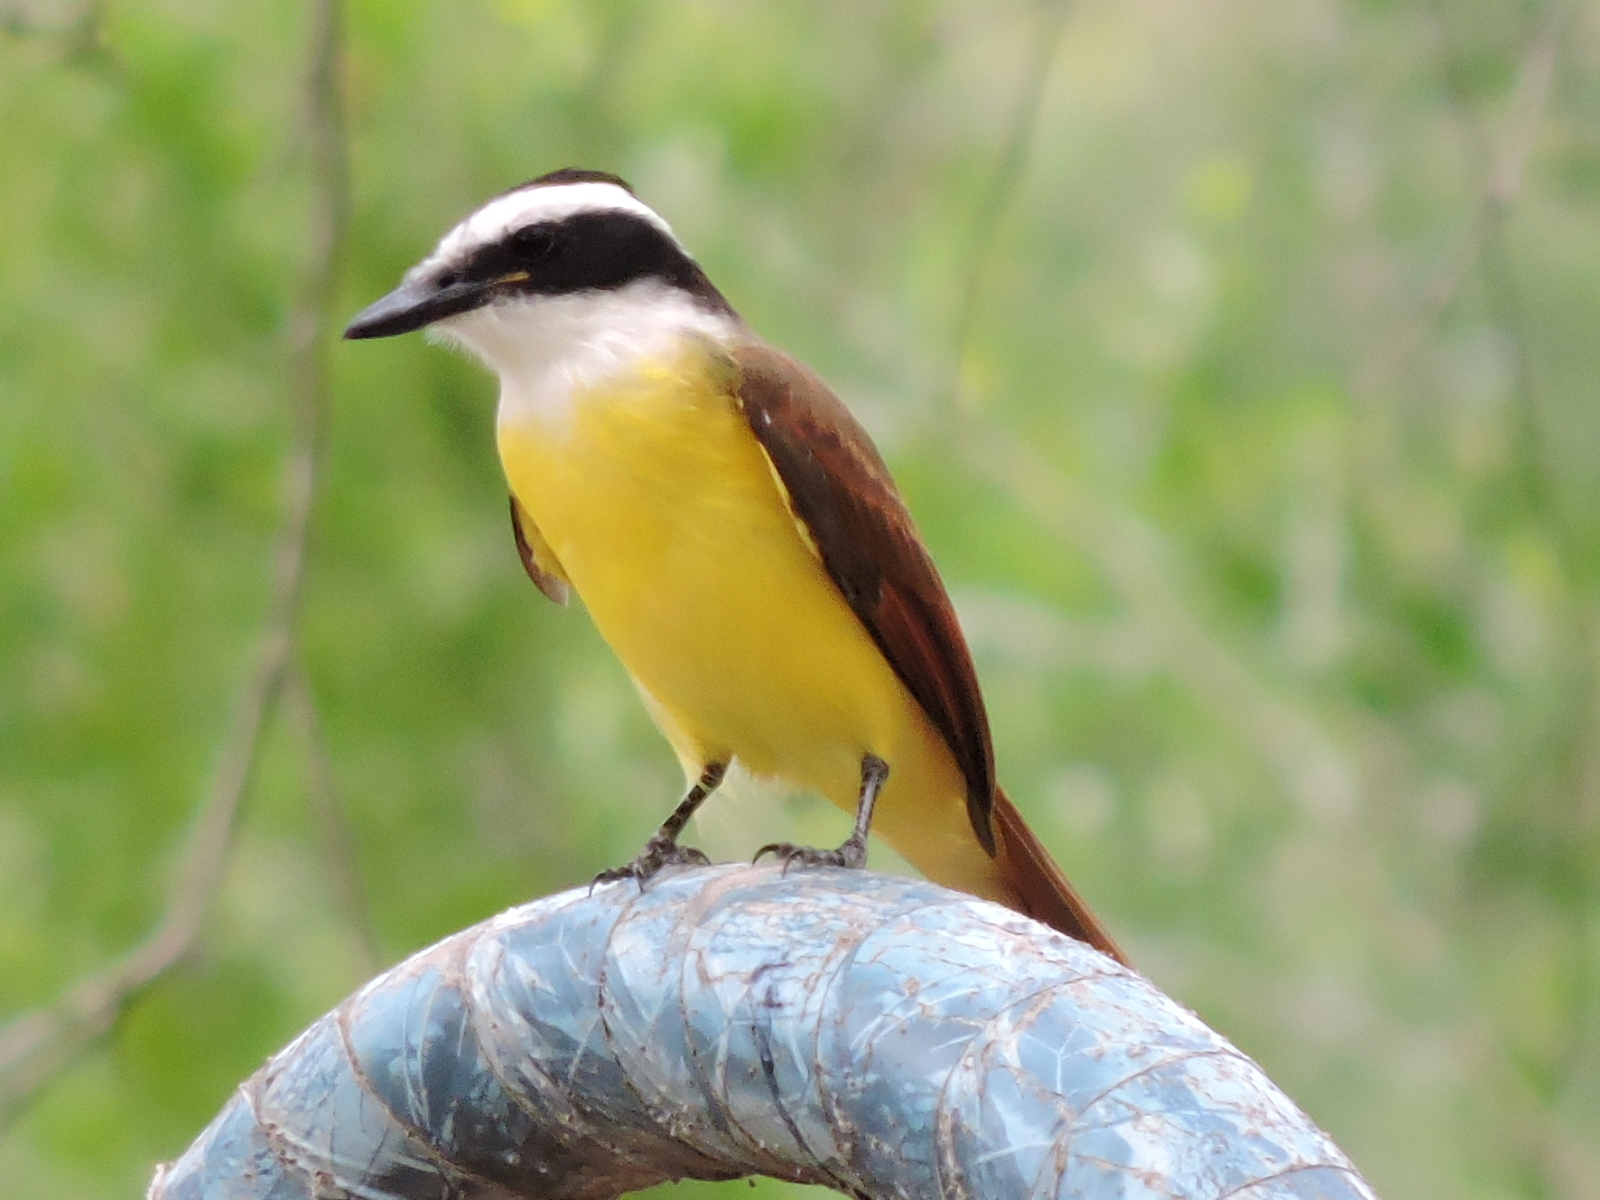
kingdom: Animalia
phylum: Chordata
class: Aves
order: Passeriformes
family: Tyrannidae
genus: Pitangus
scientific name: Pitangus sulphuratus
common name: Great kiskadee
